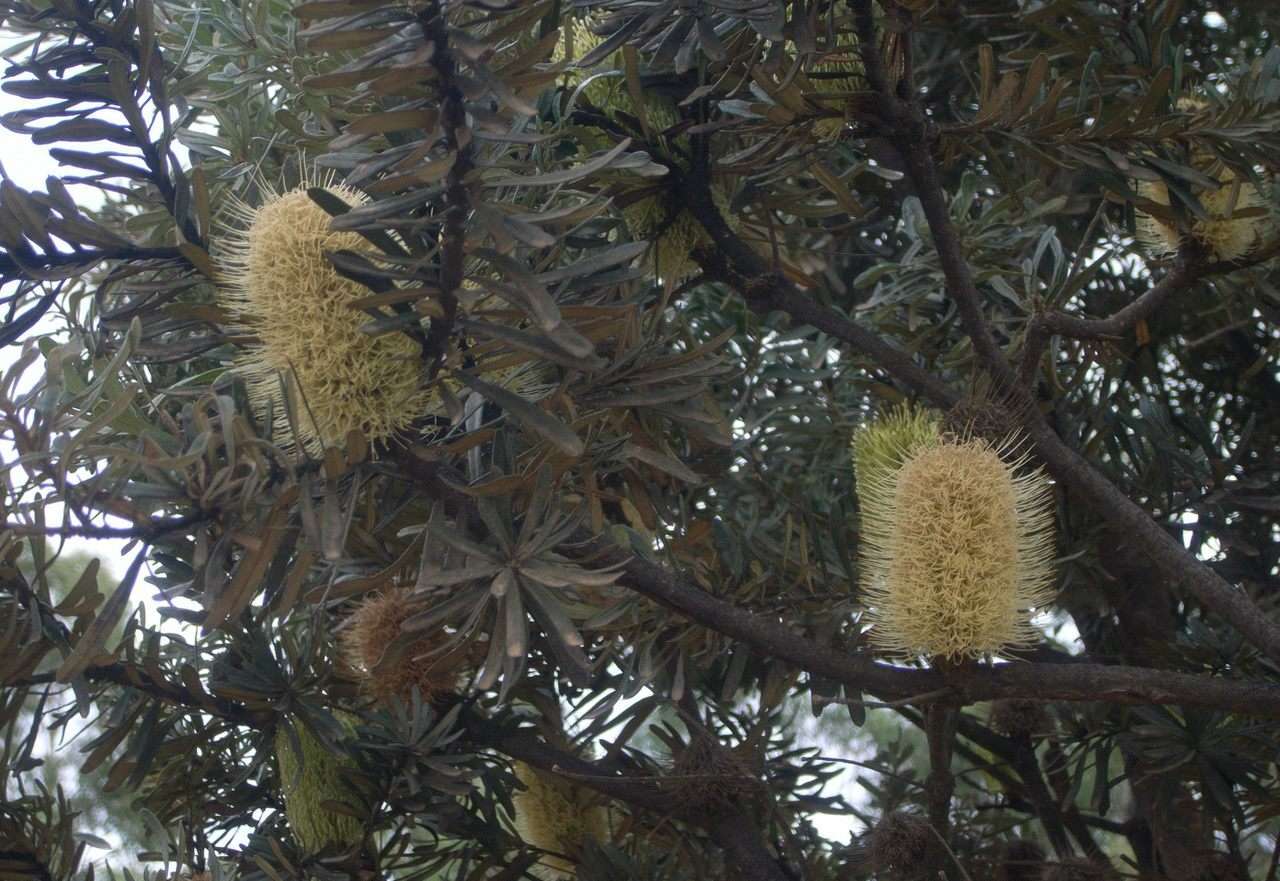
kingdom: Plantae
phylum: Tracheophyta
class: Magnoliopsida
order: Proteales
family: Proteaceae
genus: Banksia
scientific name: Banksia marginata
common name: Silver banksia
